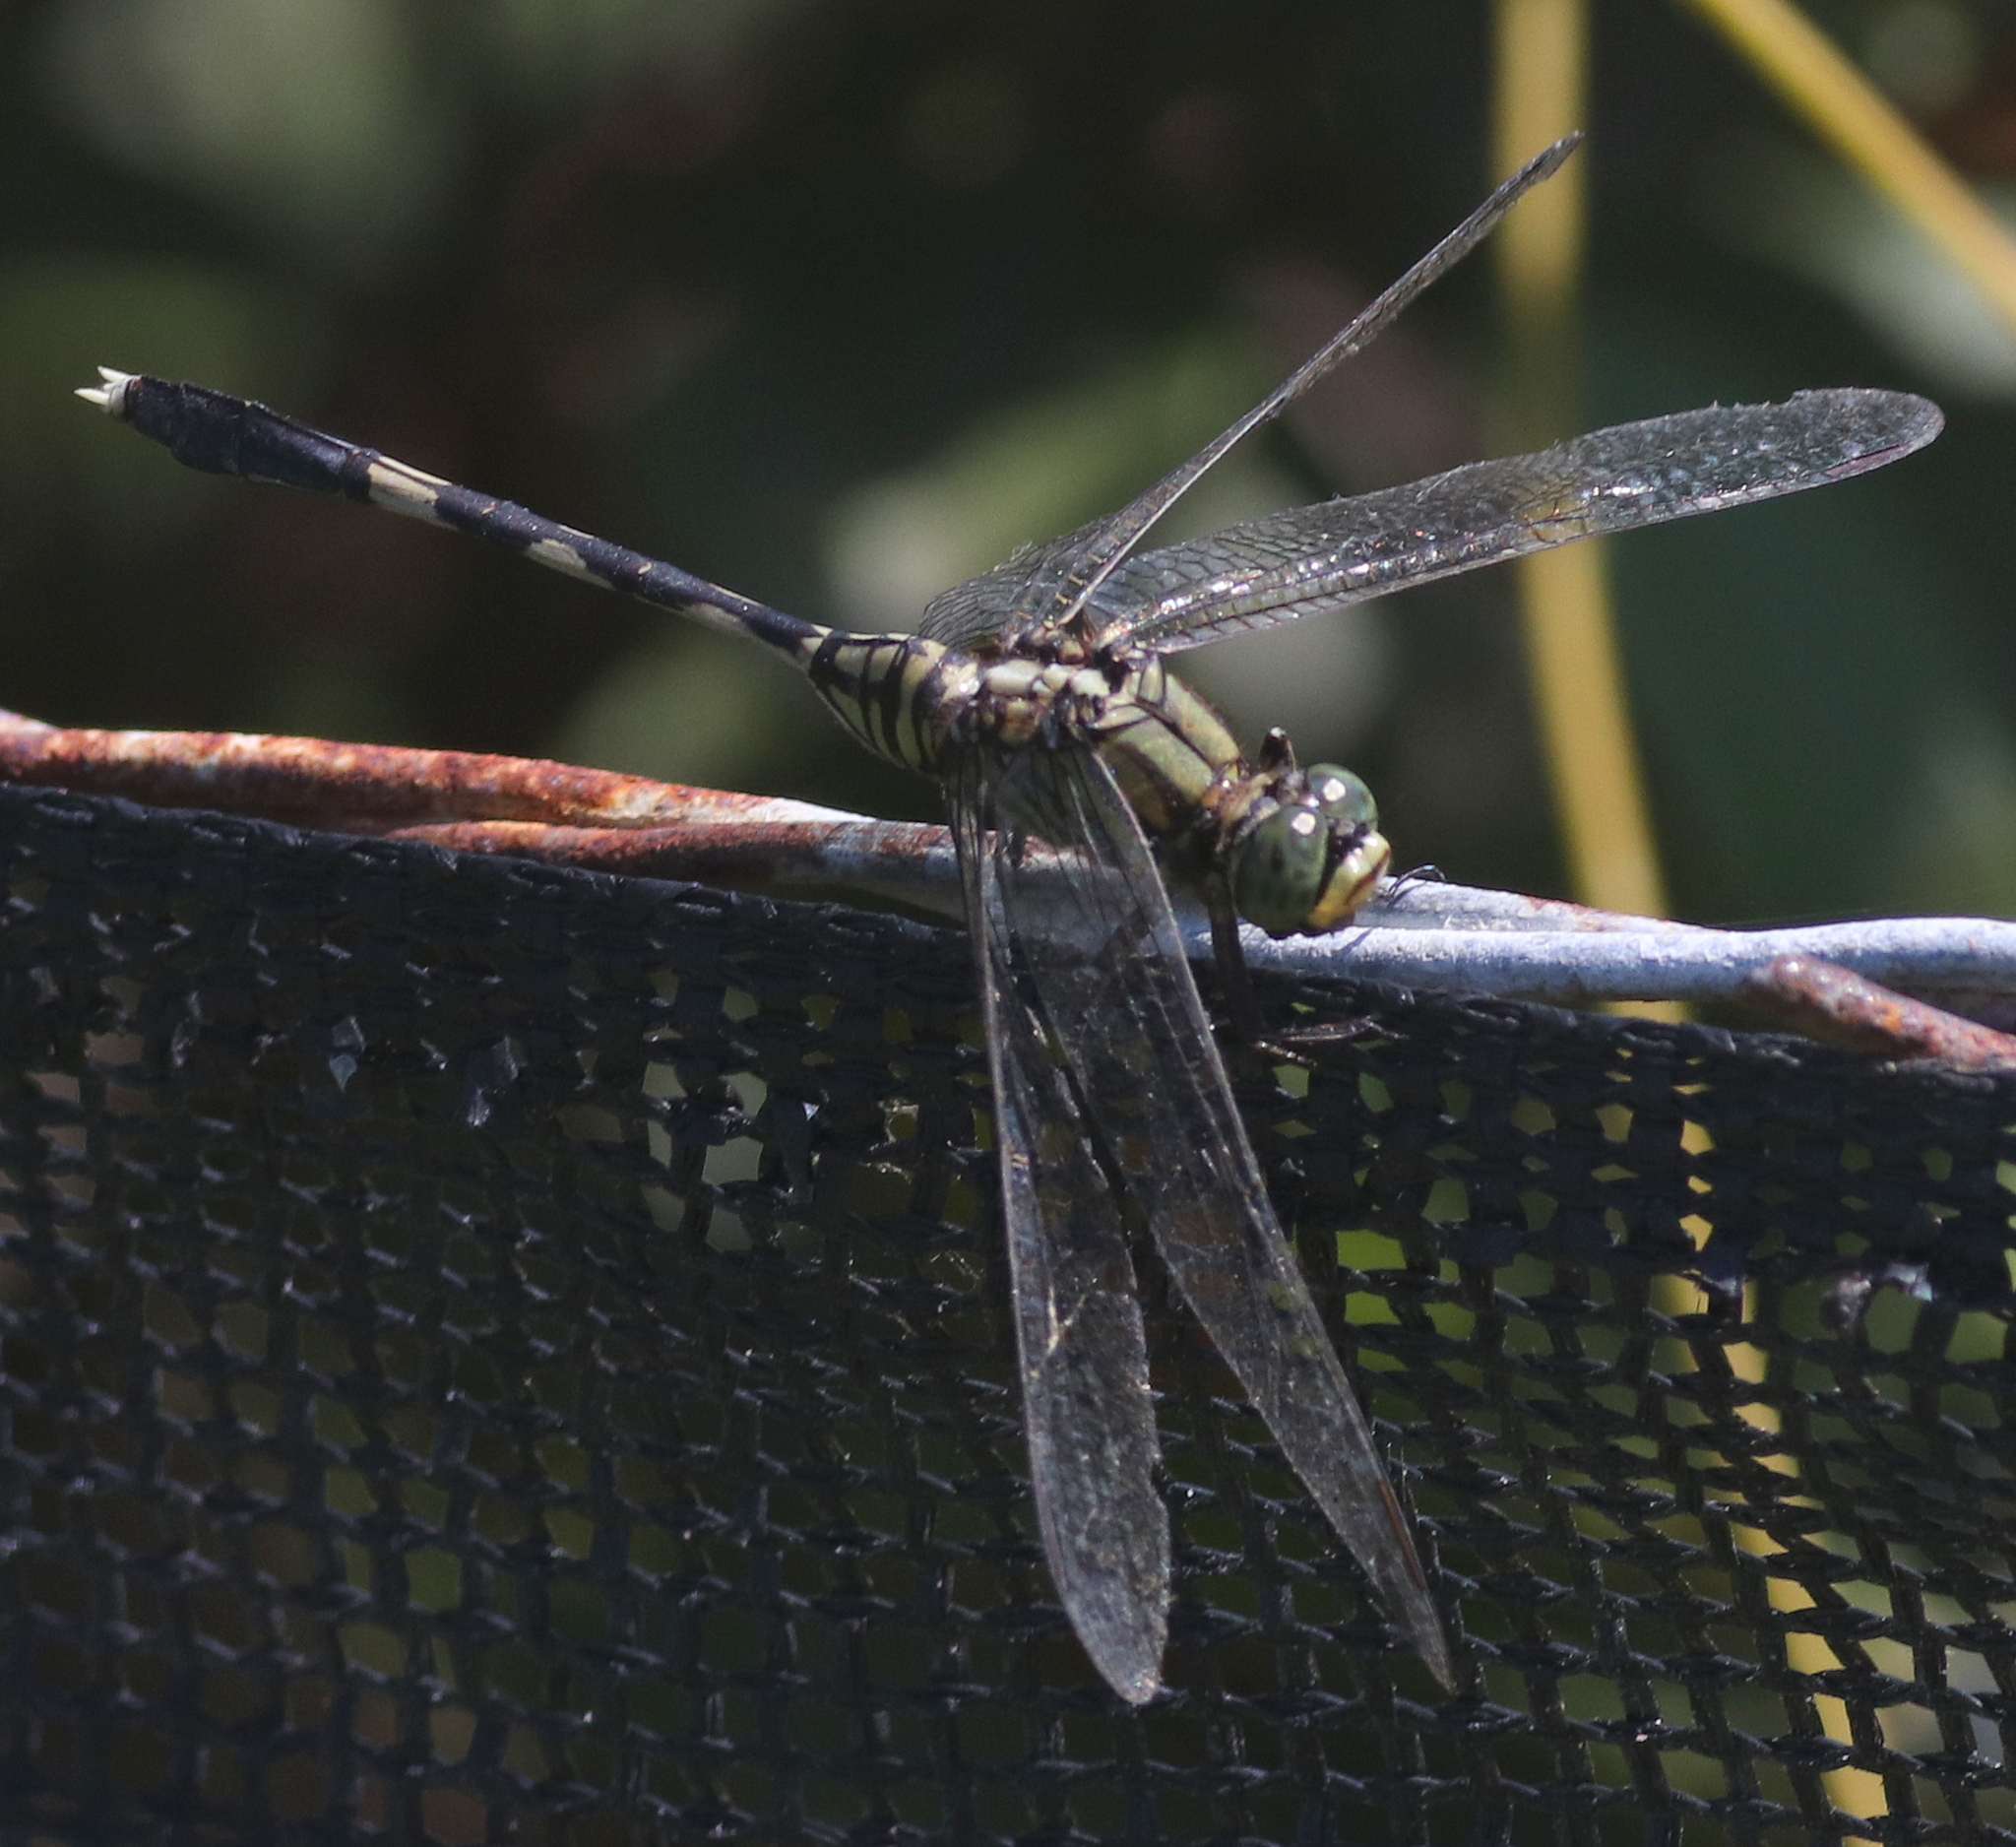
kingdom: Animalia
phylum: Arthropoda
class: Insecta
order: Odonata
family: Libellulidae
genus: Orthetrum
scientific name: Orthetrum sabina
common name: Slender skimmer
